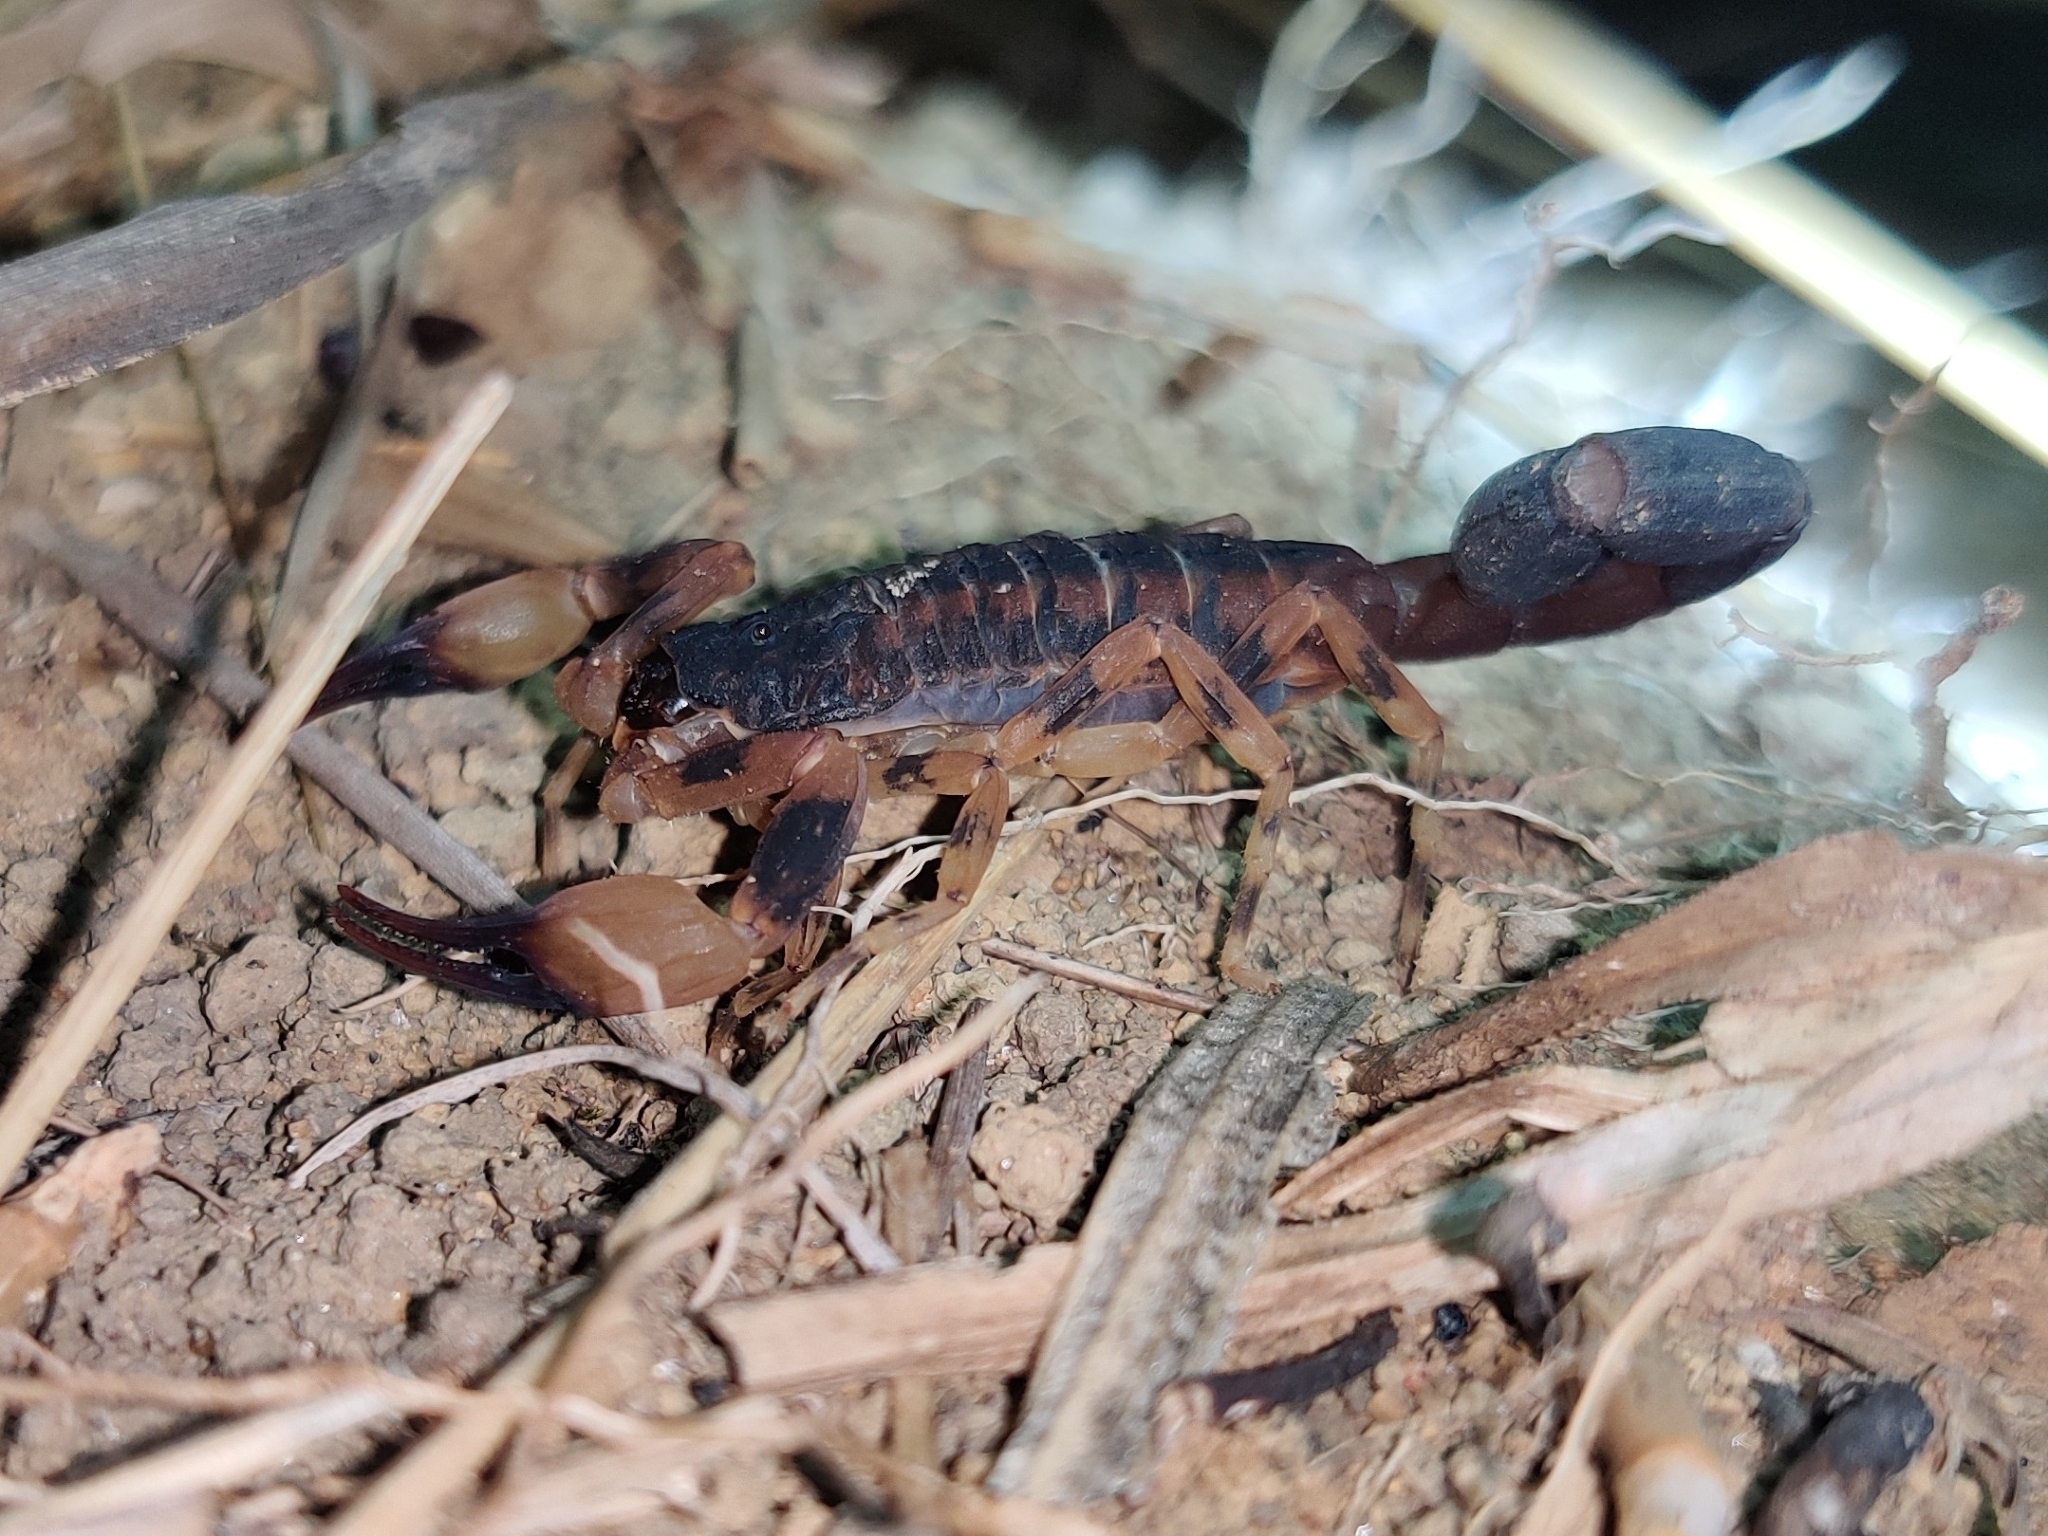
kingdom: Animalia
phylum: Arthropoda
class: Arachnida
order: Scorpiones
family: Buthidae
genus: Tityus
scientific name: Tityus bahiensis
